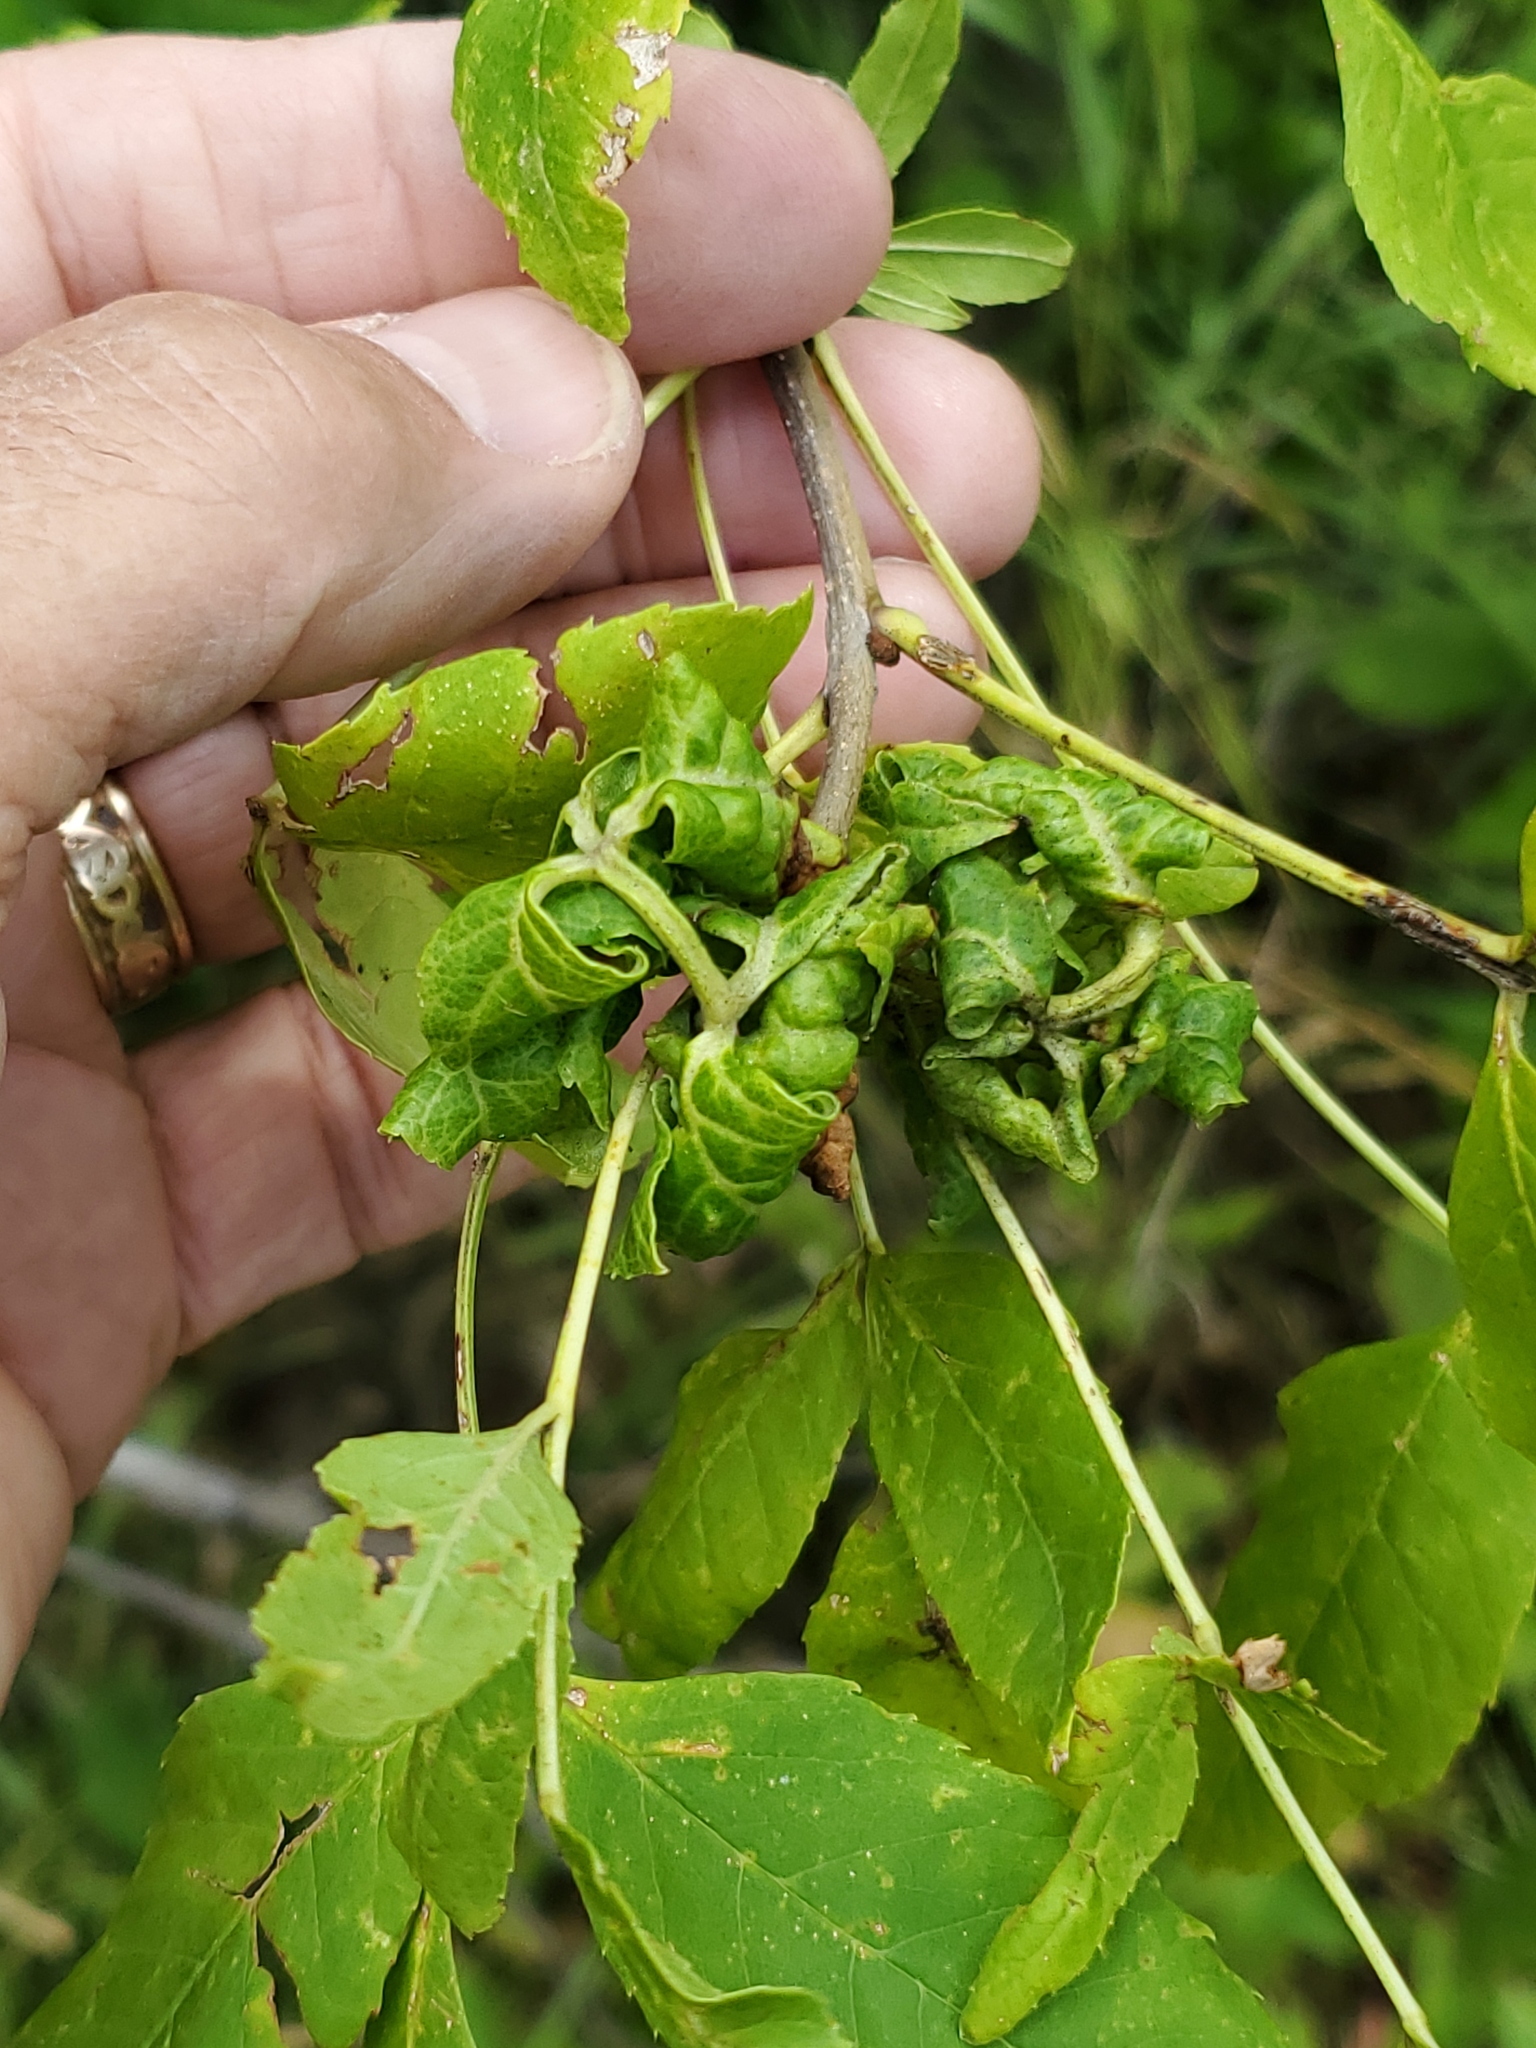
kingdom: Animalia
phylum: Arthropoda
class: Insecta
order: Hemiptera
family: Aphididae
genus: Prociphilus
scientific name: Prociphilus fraxinifolii
